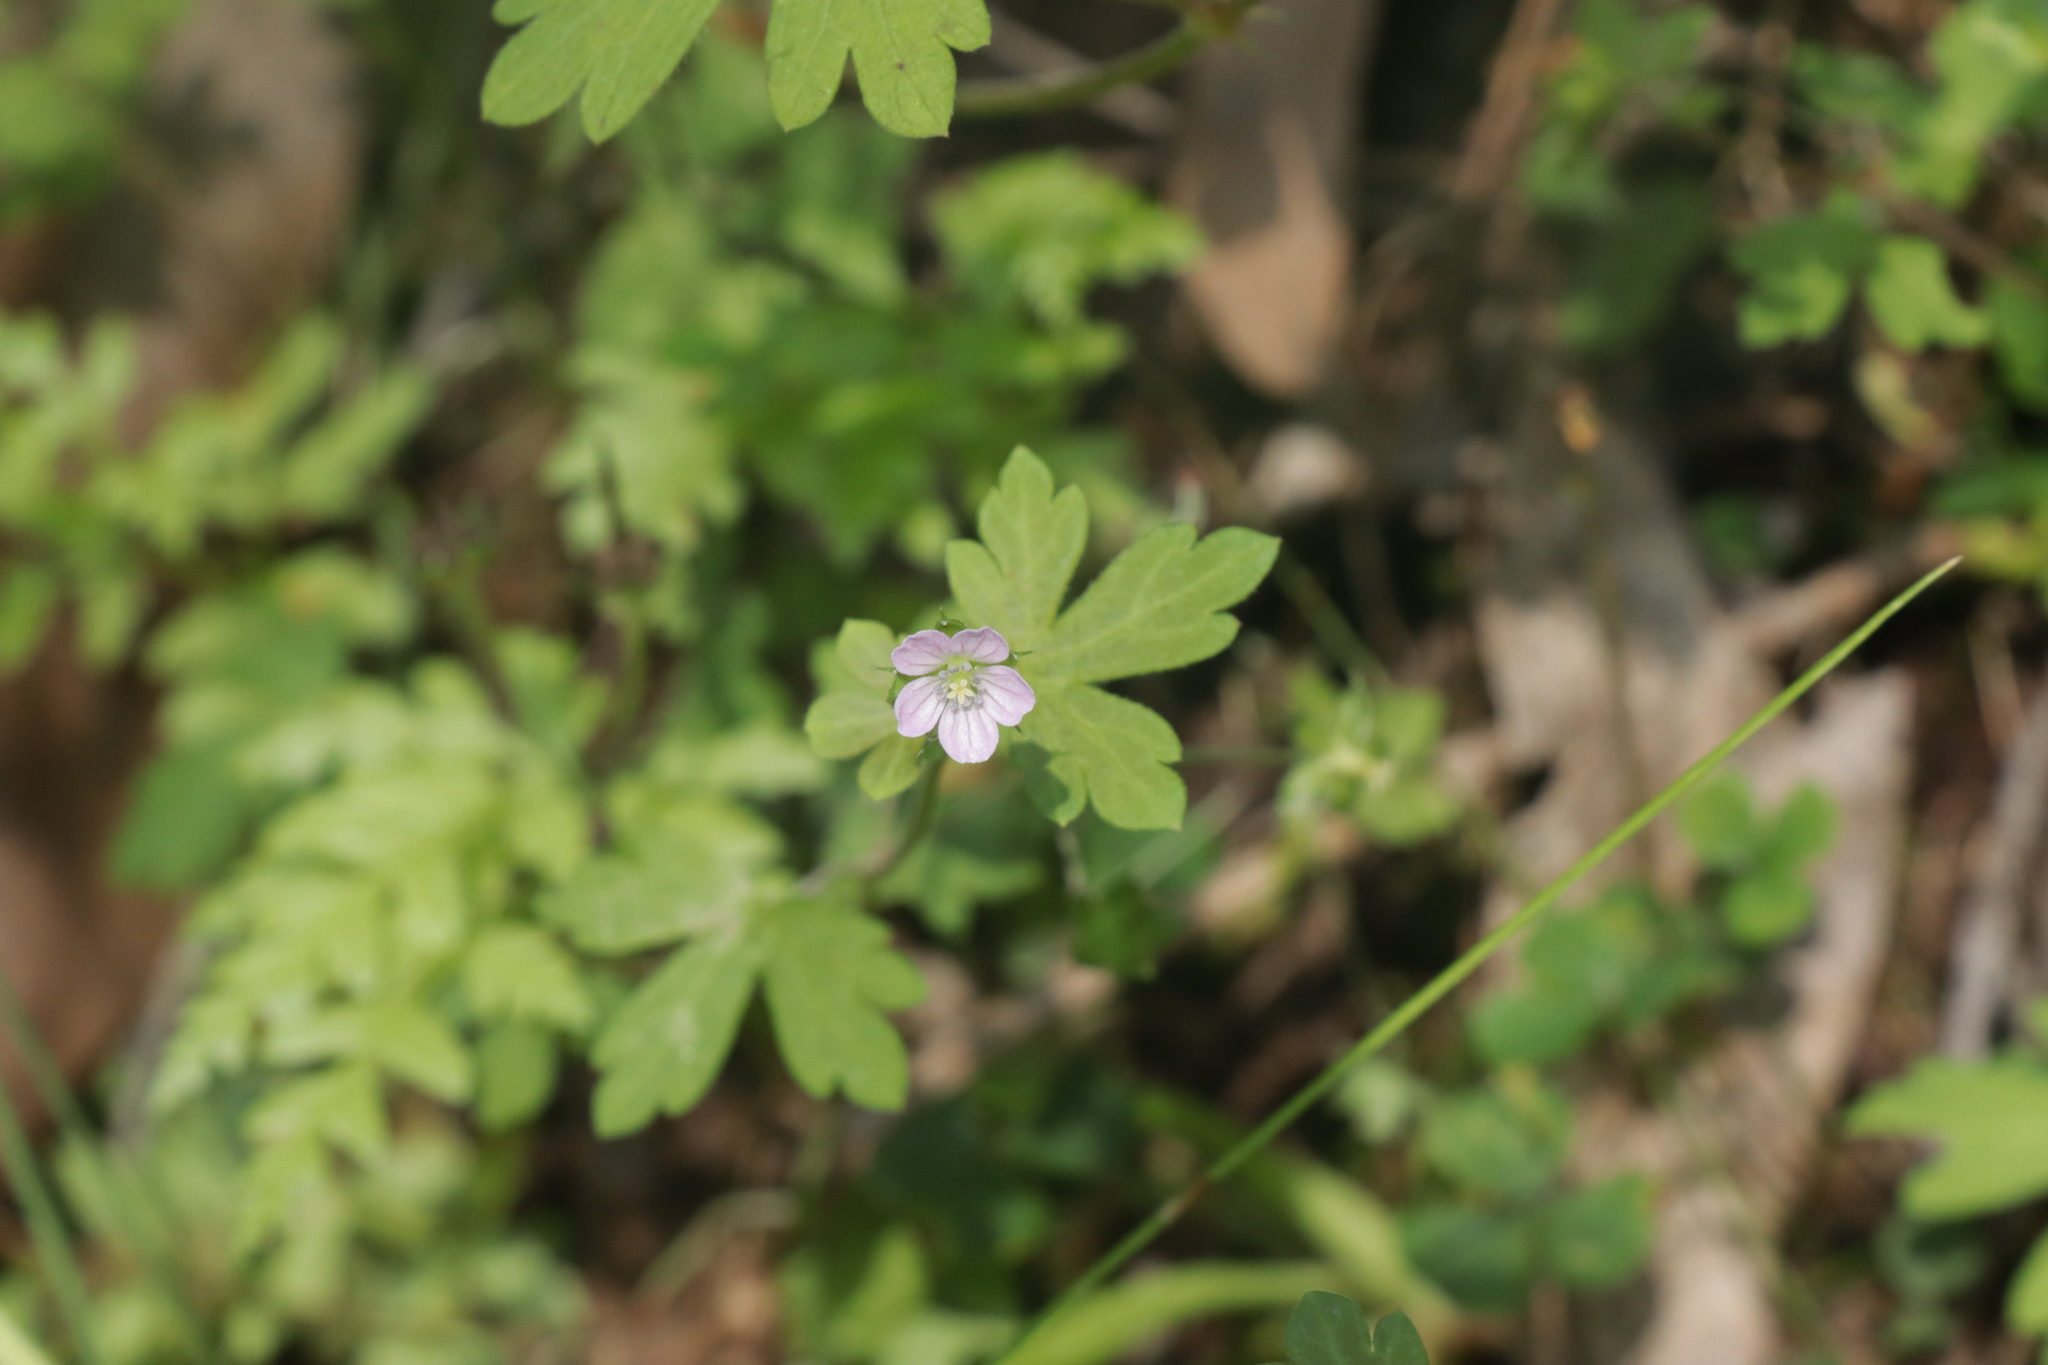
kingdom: Plantae
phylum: Tracheophyta
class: Magnoliopsida
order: Geraniales
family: Geraniaceae
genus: Geranium
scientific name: Geranium homeanum
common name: Australasian geranium
